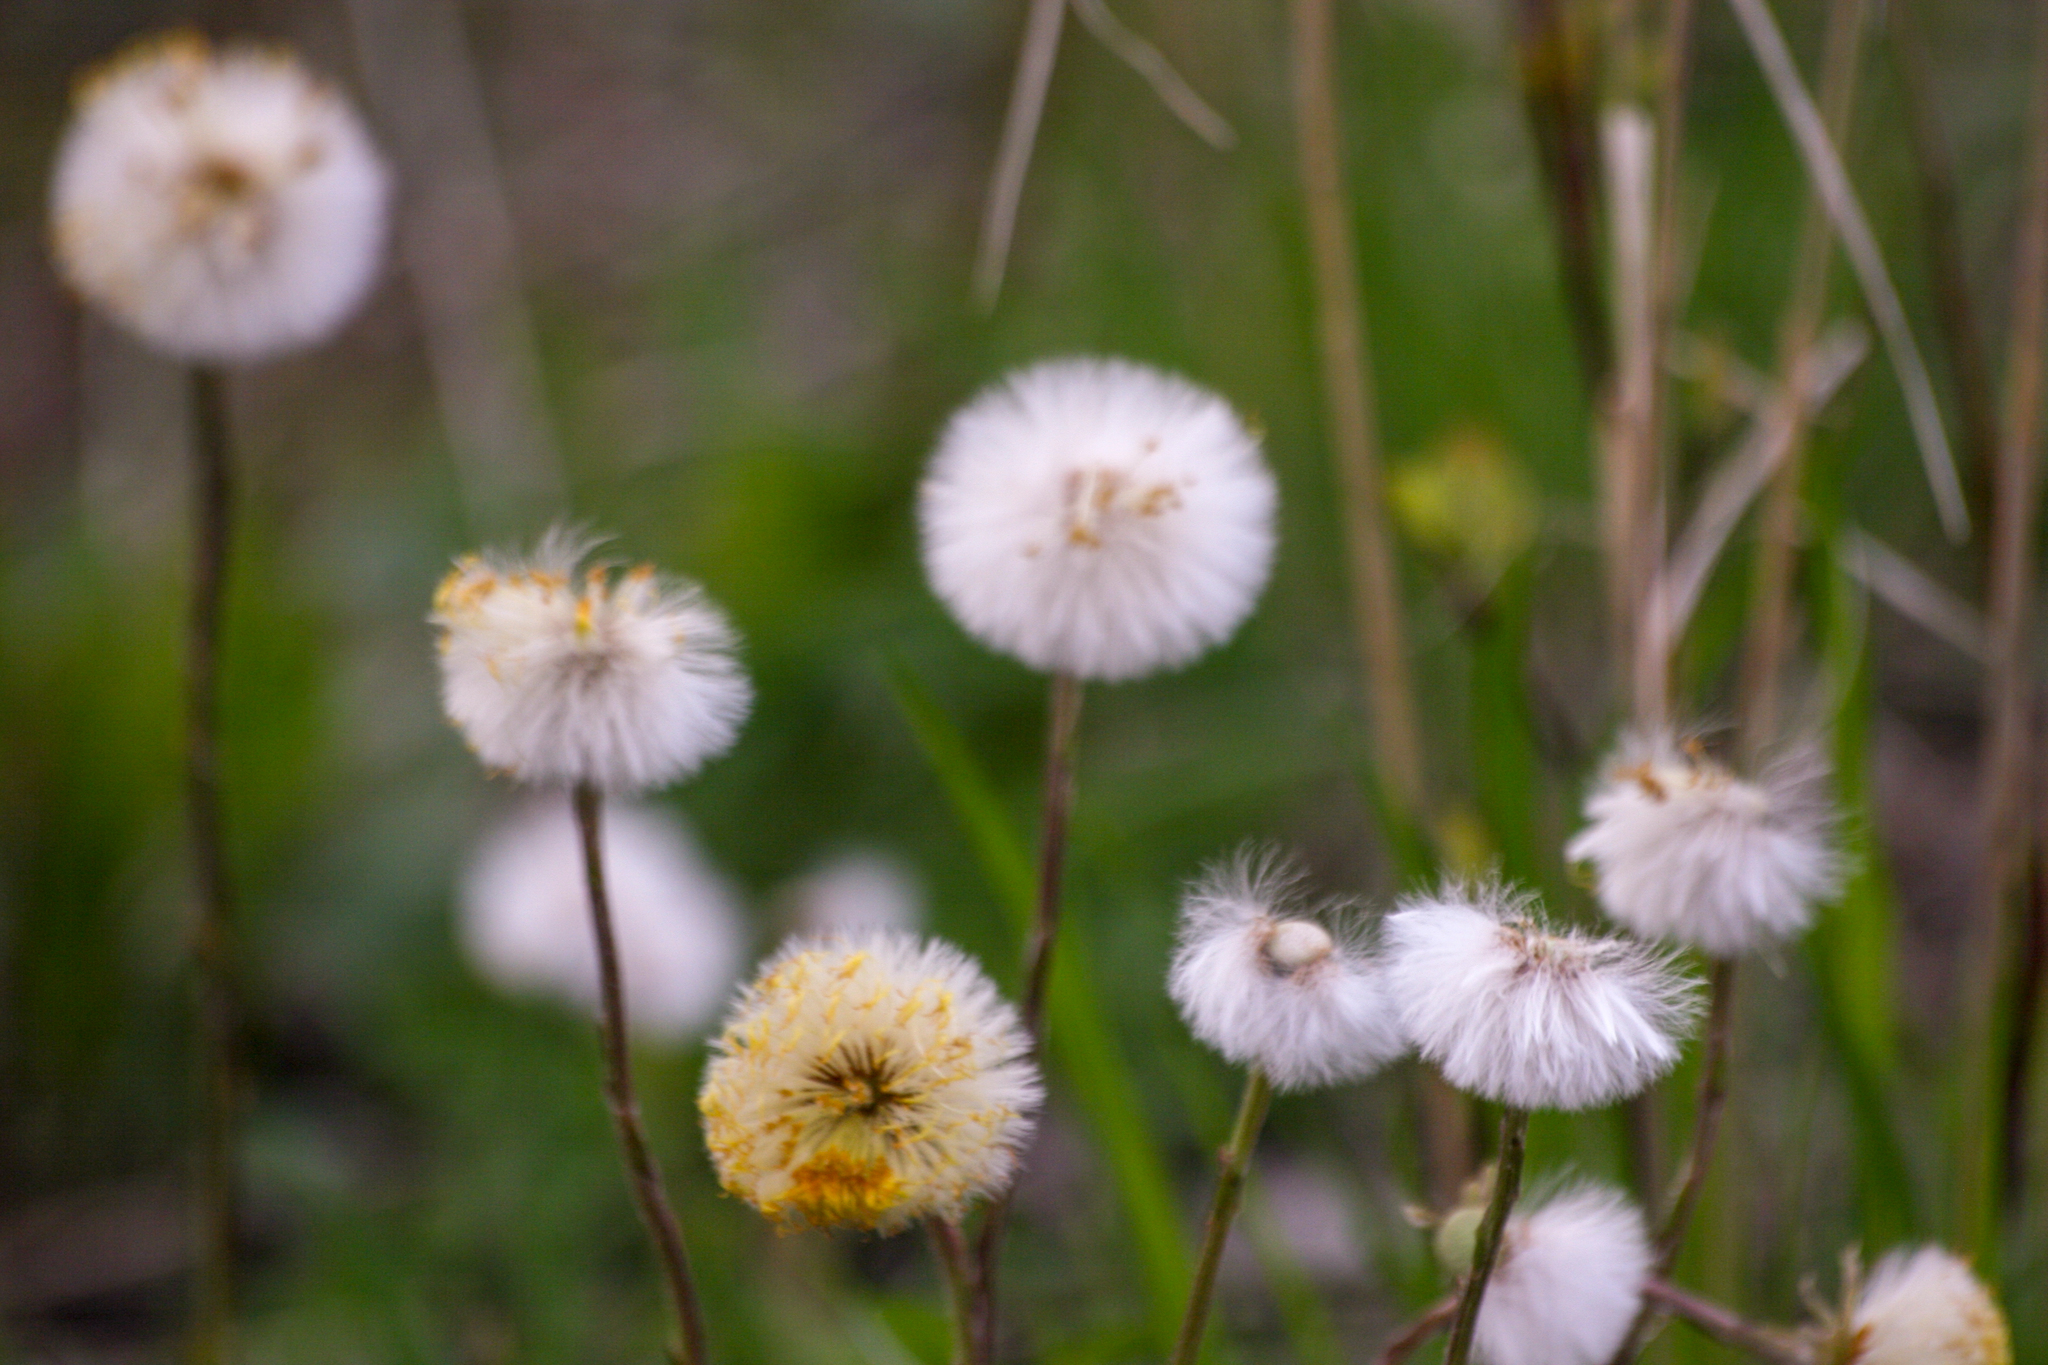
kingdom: Plantae
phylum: Tracheophyta
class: Magnoliopsida
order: Asterales
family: Asteraceae
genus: Tussilago
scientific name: Tussilago farfara
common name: Coltsfoot
